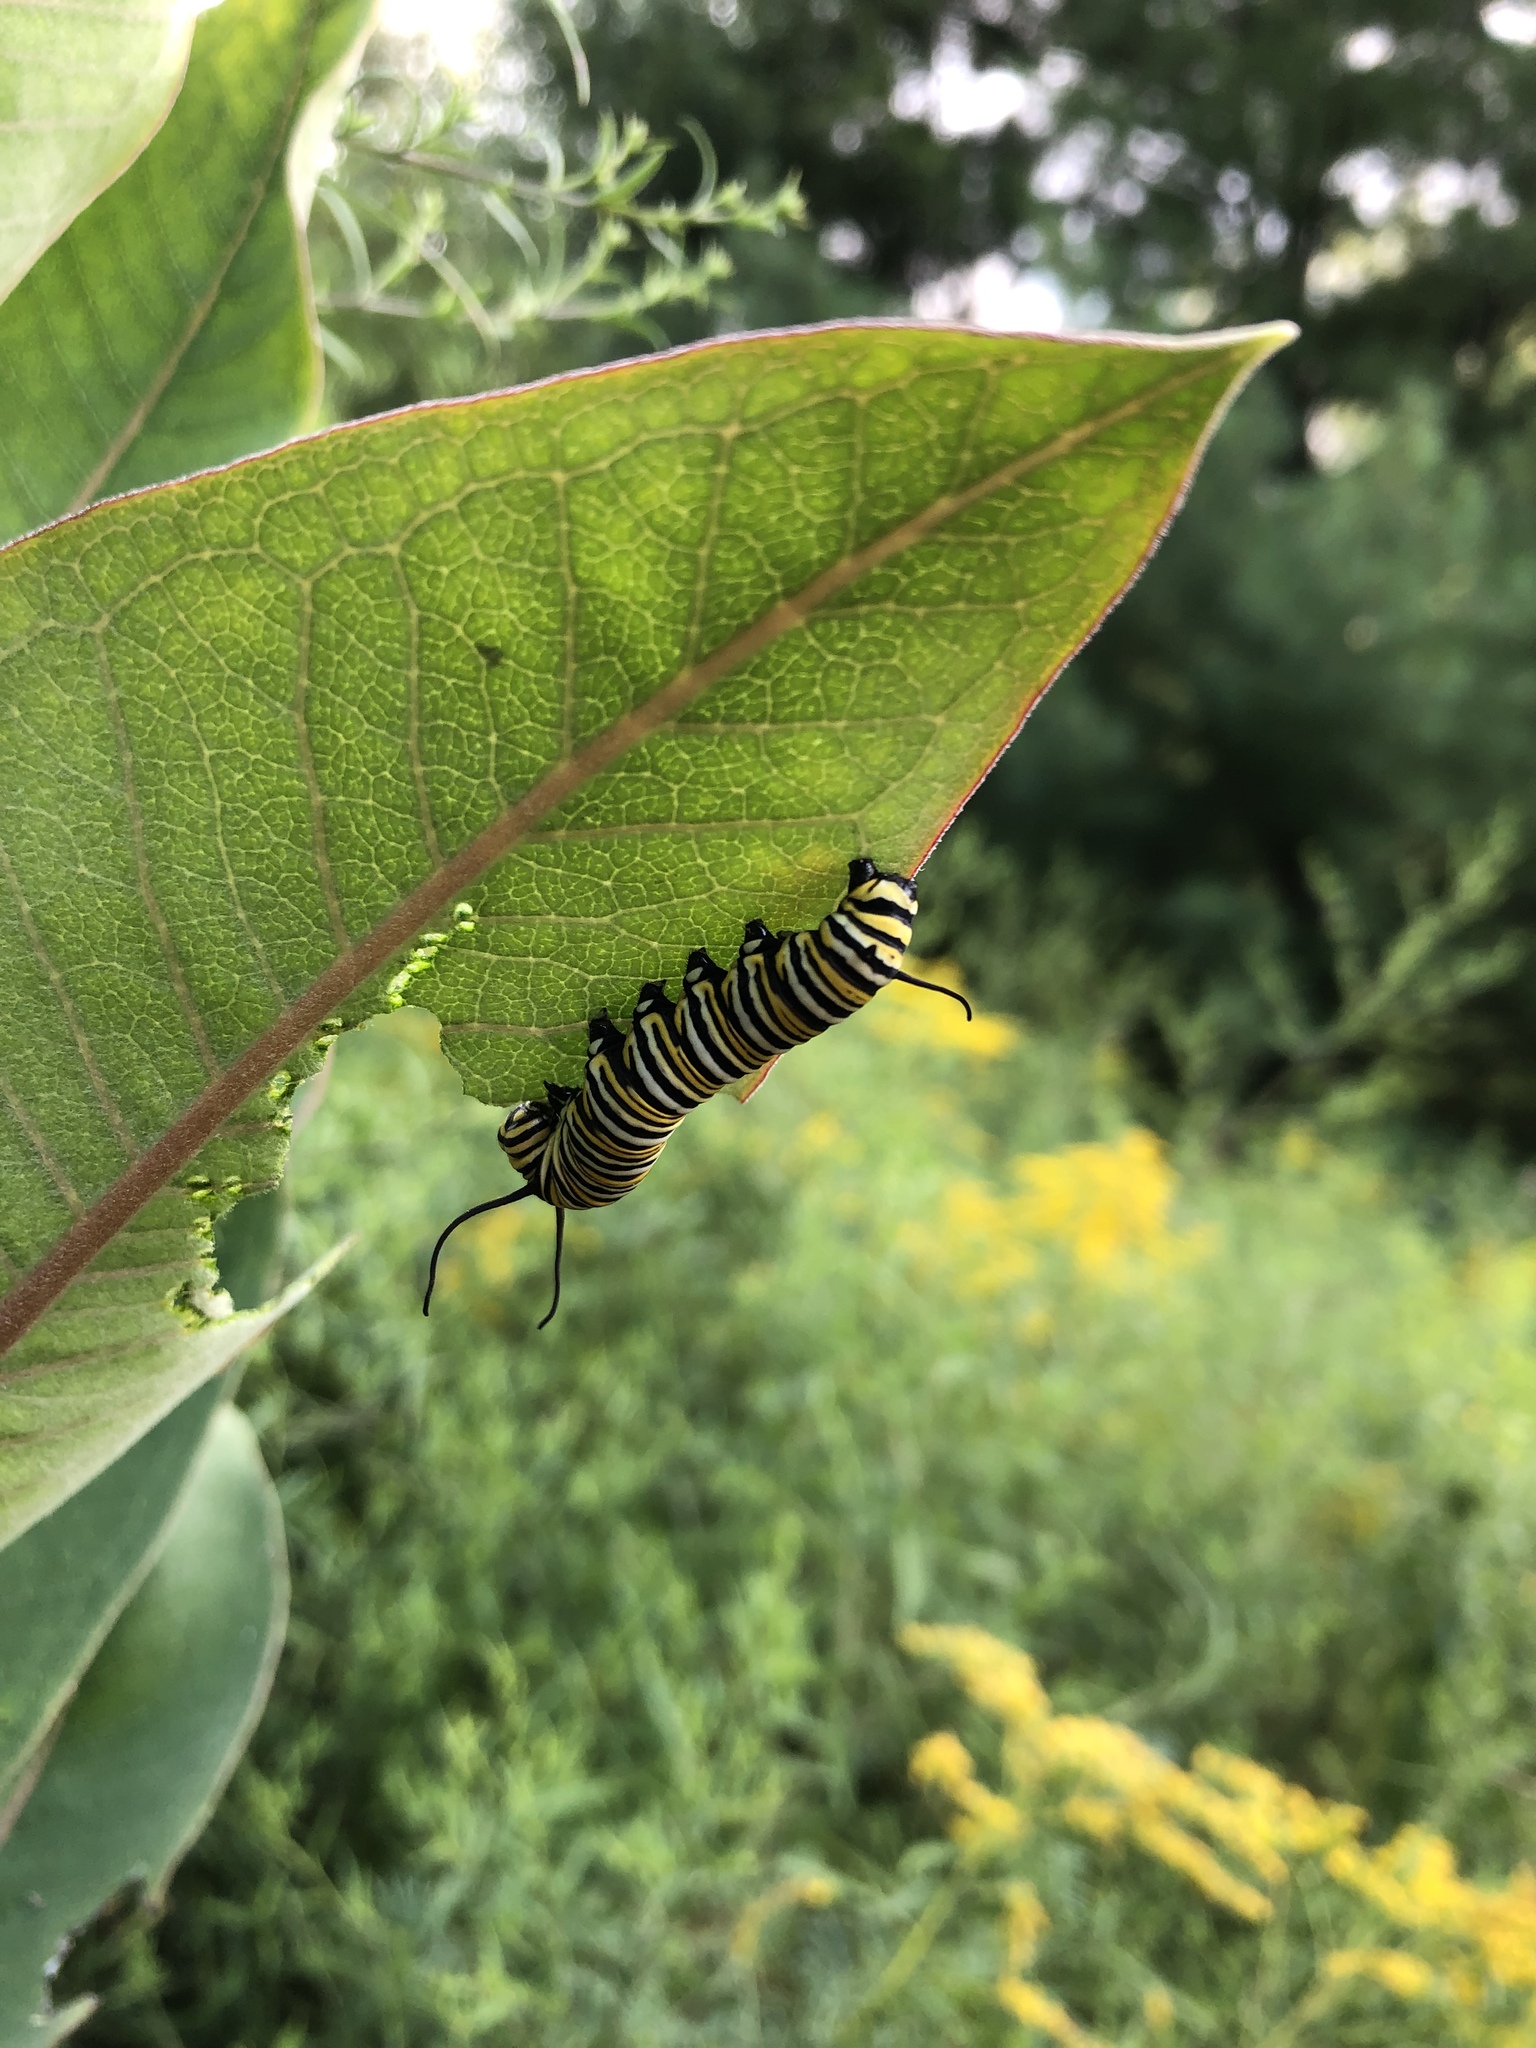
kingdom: Animalia
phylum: Arthropoda
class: Insecta
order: Lepidoptera
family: Nymphalidae
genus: Danaus
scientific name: Danaus plexippus
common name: Monarch
